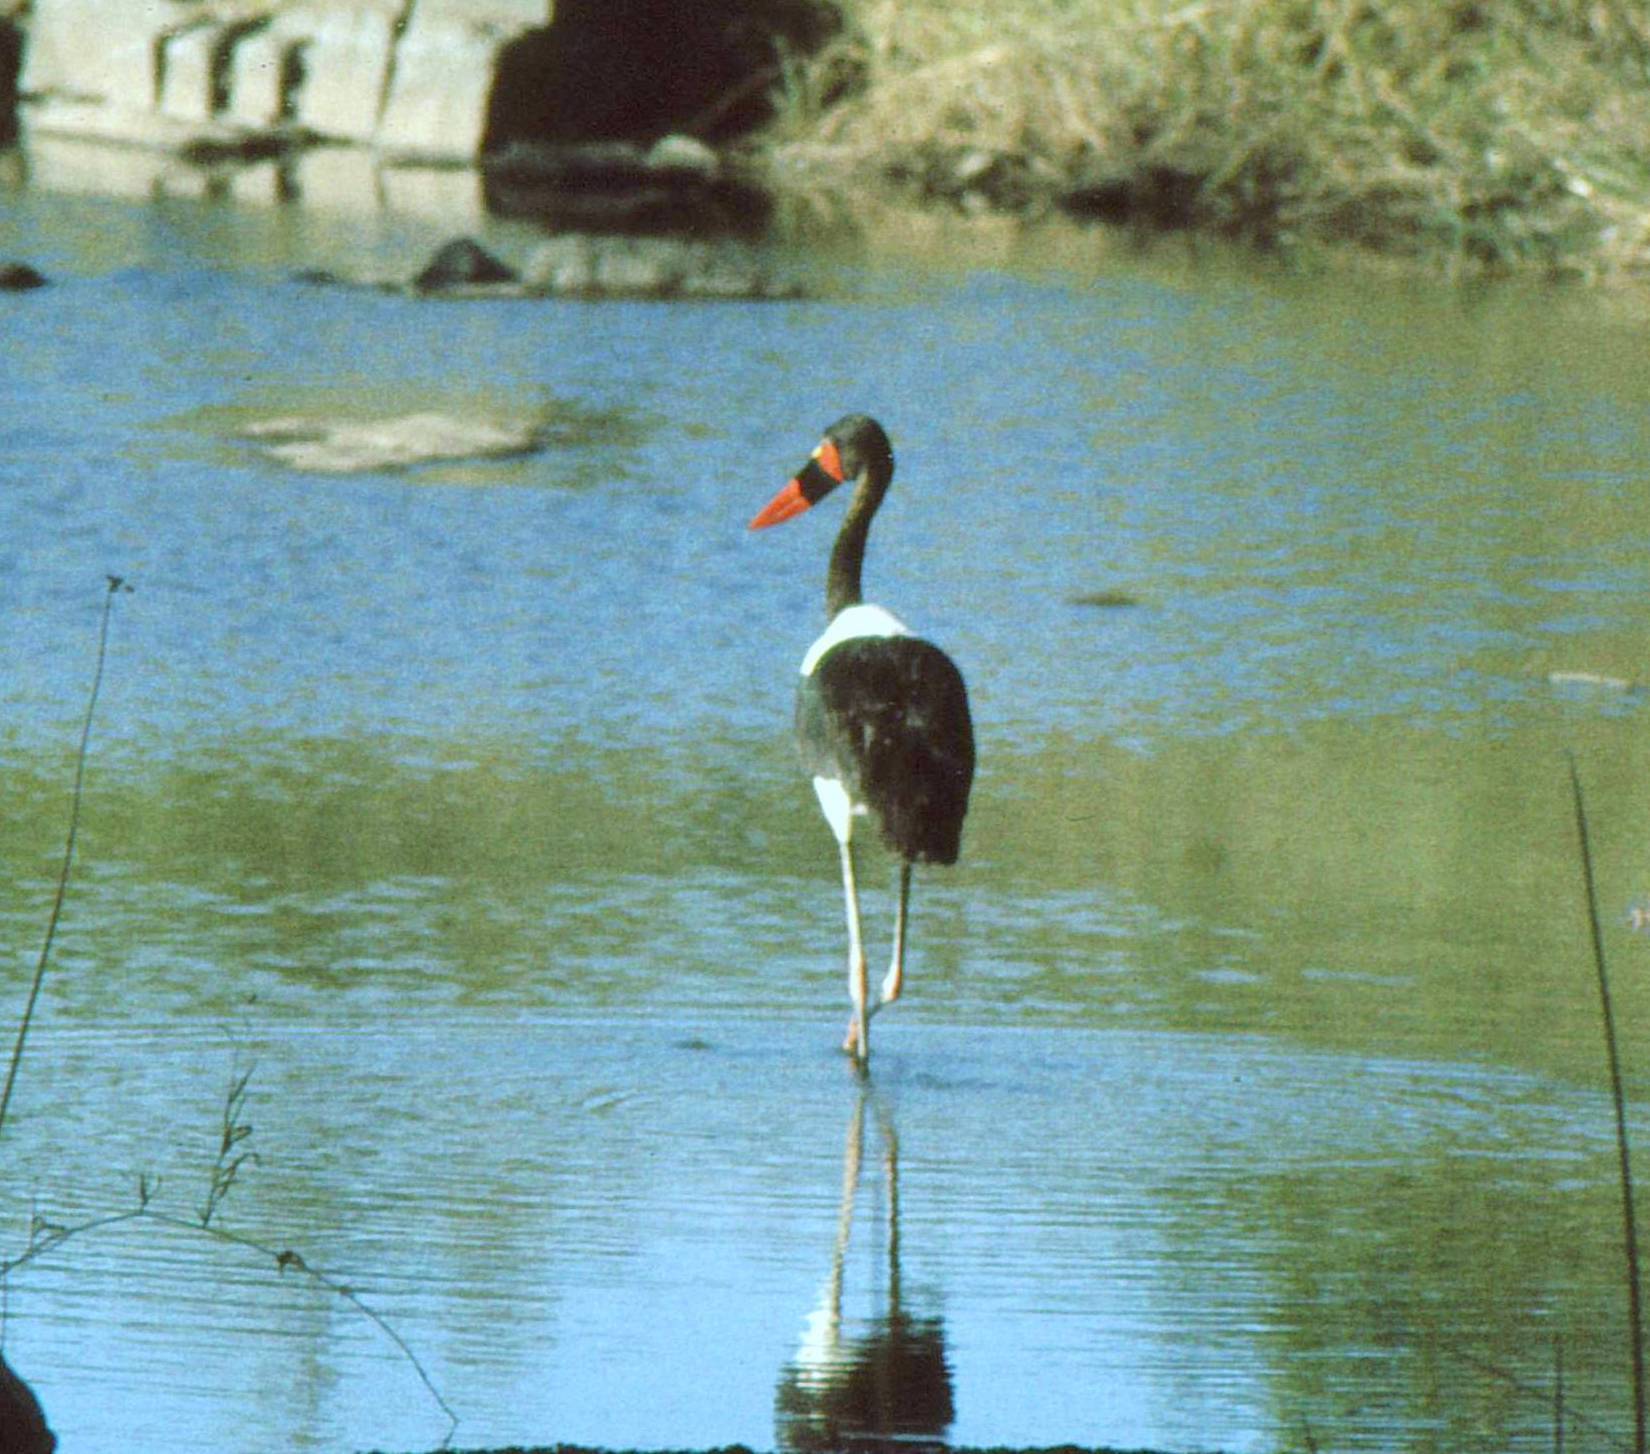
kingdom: Animalia
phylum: Chordata
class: Aves
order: Ciconiiformes
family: Ciconiidae
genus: Ephippiorhynchus
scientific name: Ephippiorhynchus senegalensis
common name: Saddle-billed stork
